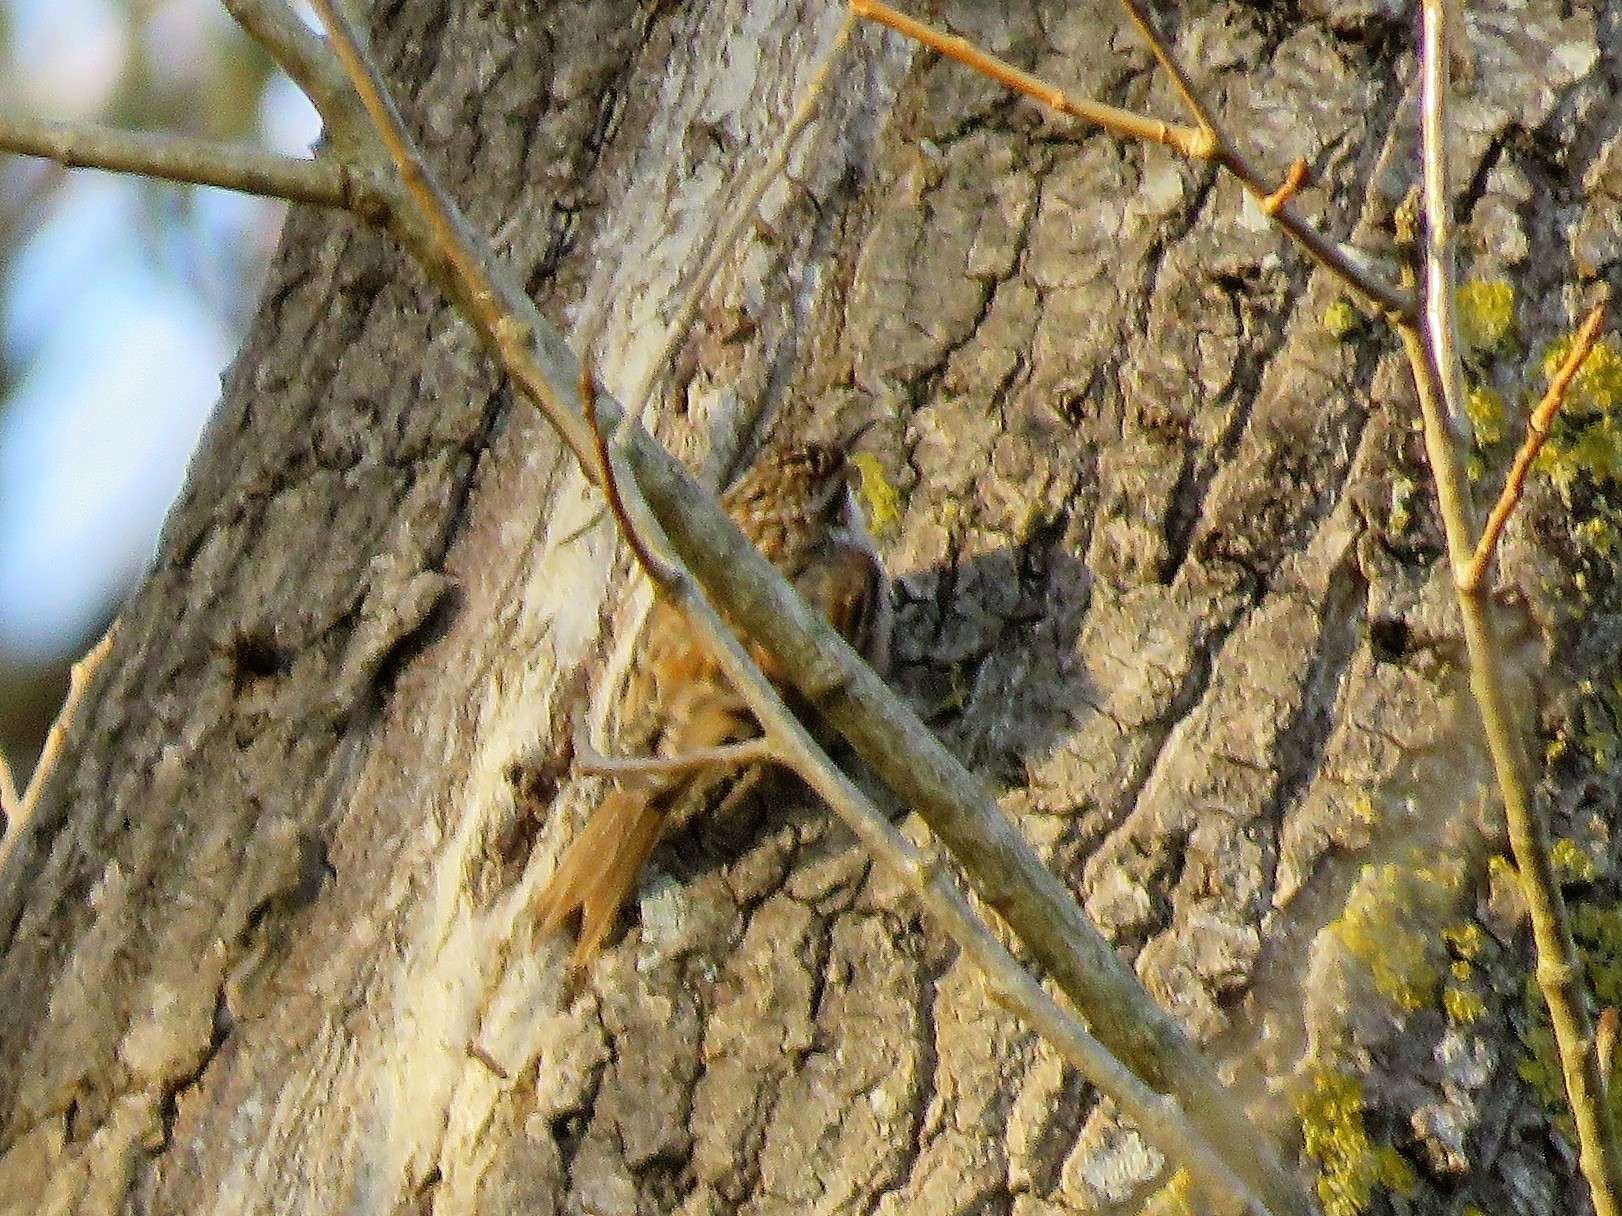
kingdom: Animalia
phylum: Chordata
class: Aves
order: Passeriformes
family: Certhiidae
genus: Certhia
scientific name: Certhia brachydactyla
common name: Short-toed treecreeper
